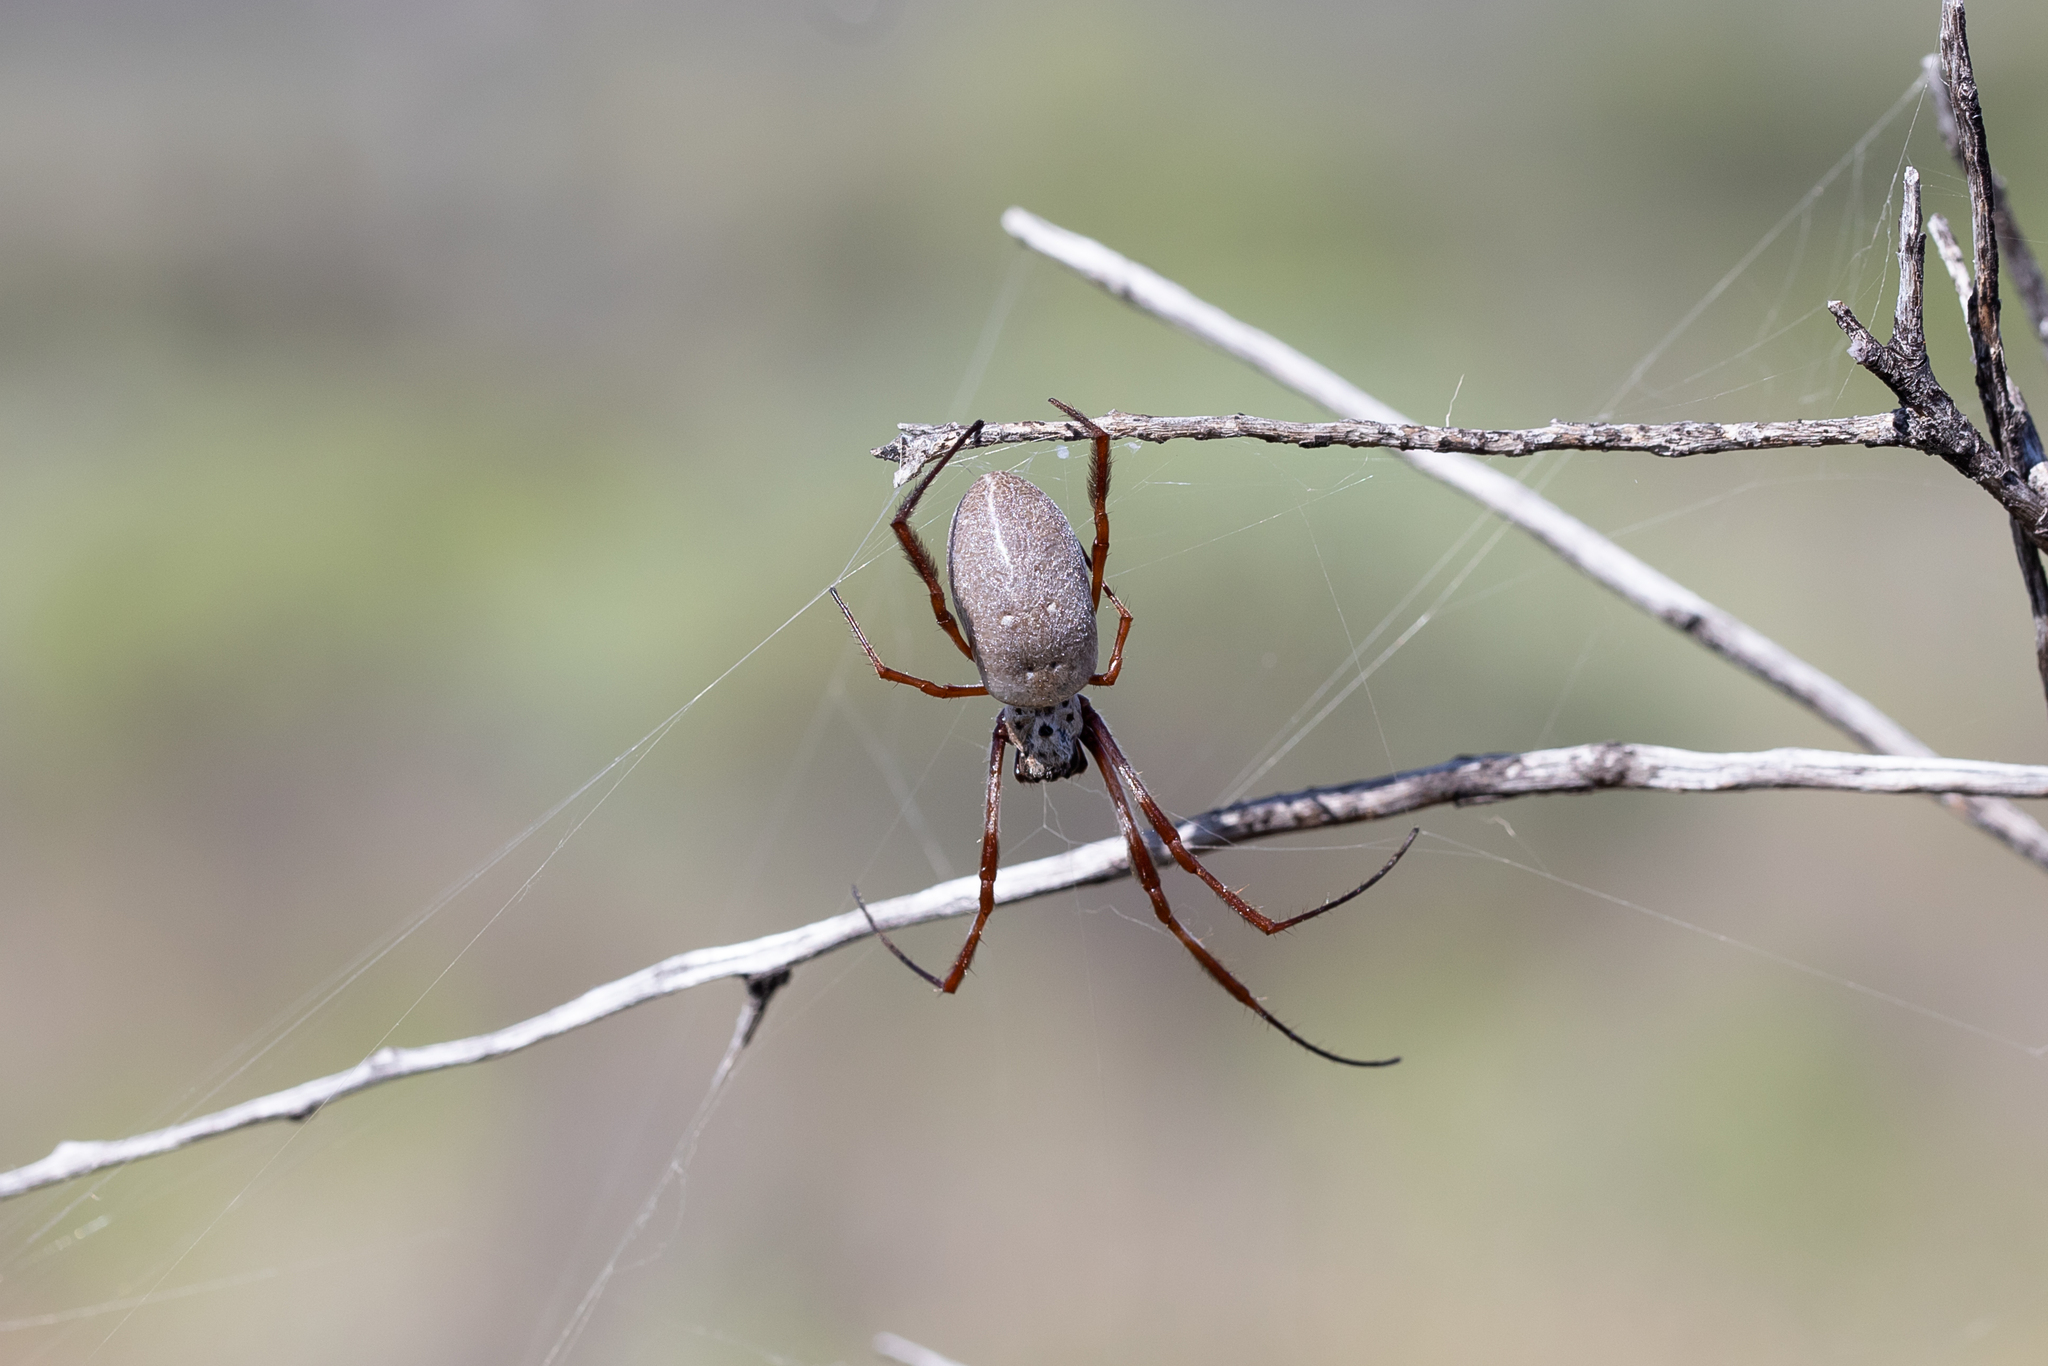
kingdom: Animalia
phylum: Arthropoda
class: Arachnida
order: Araneae
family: Araneidae
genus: Trichonephila
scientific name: Trichonephila edulis
